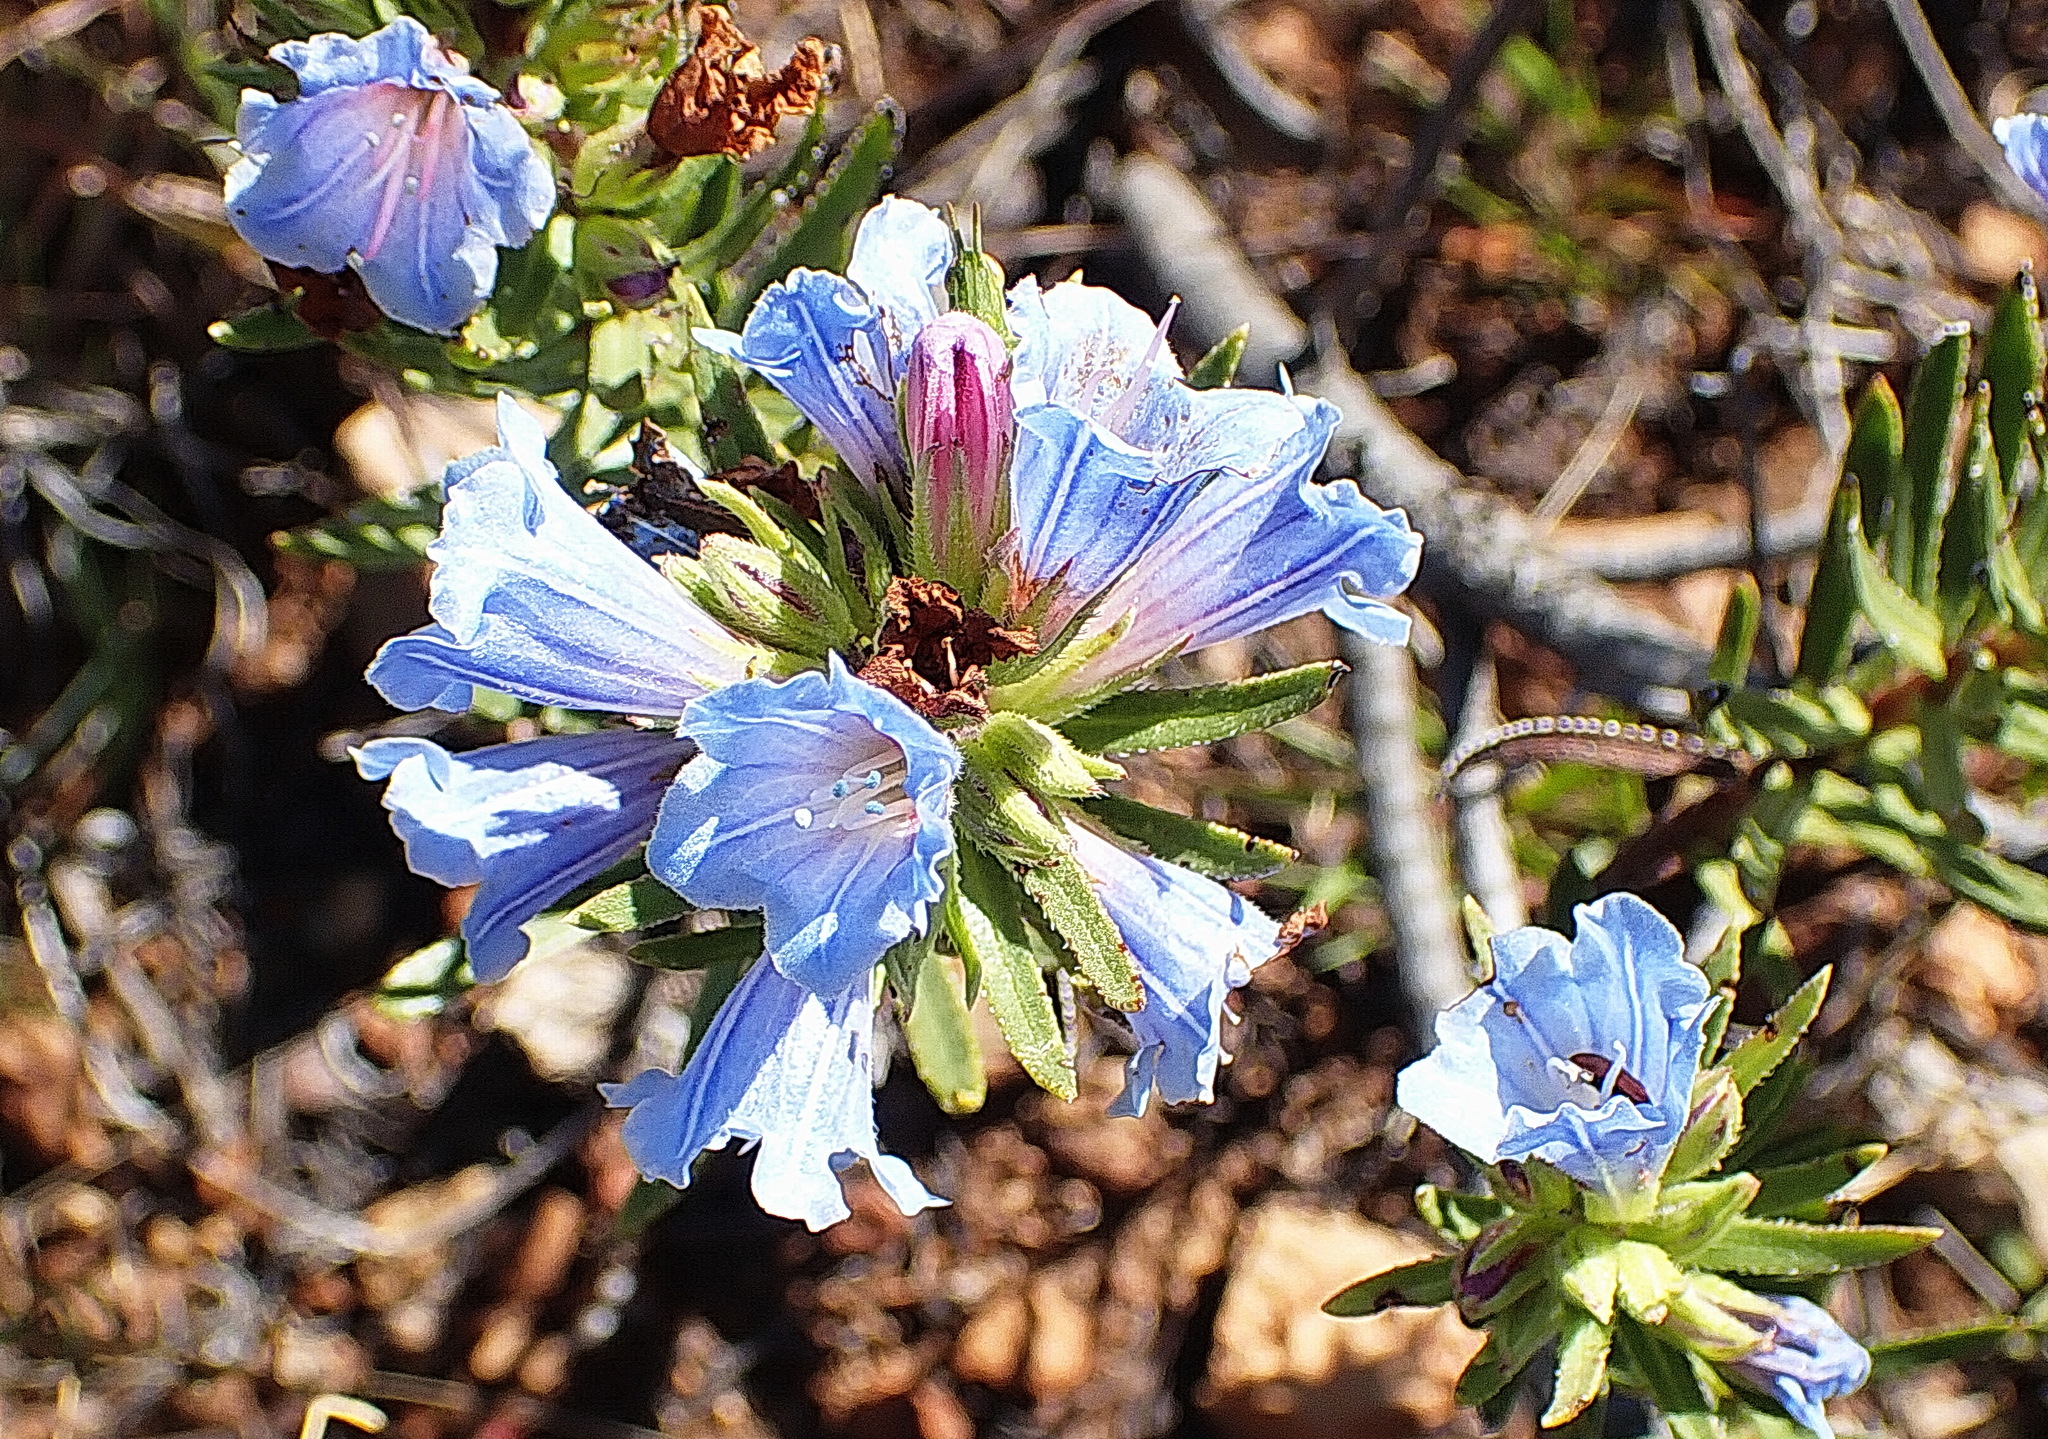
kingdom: Plantae
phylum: Tracheophyta
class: Magnoliopsida
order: Boraginales
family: Boraginaceae
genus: Lobostemon
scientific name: Lobostemon fruticosus
